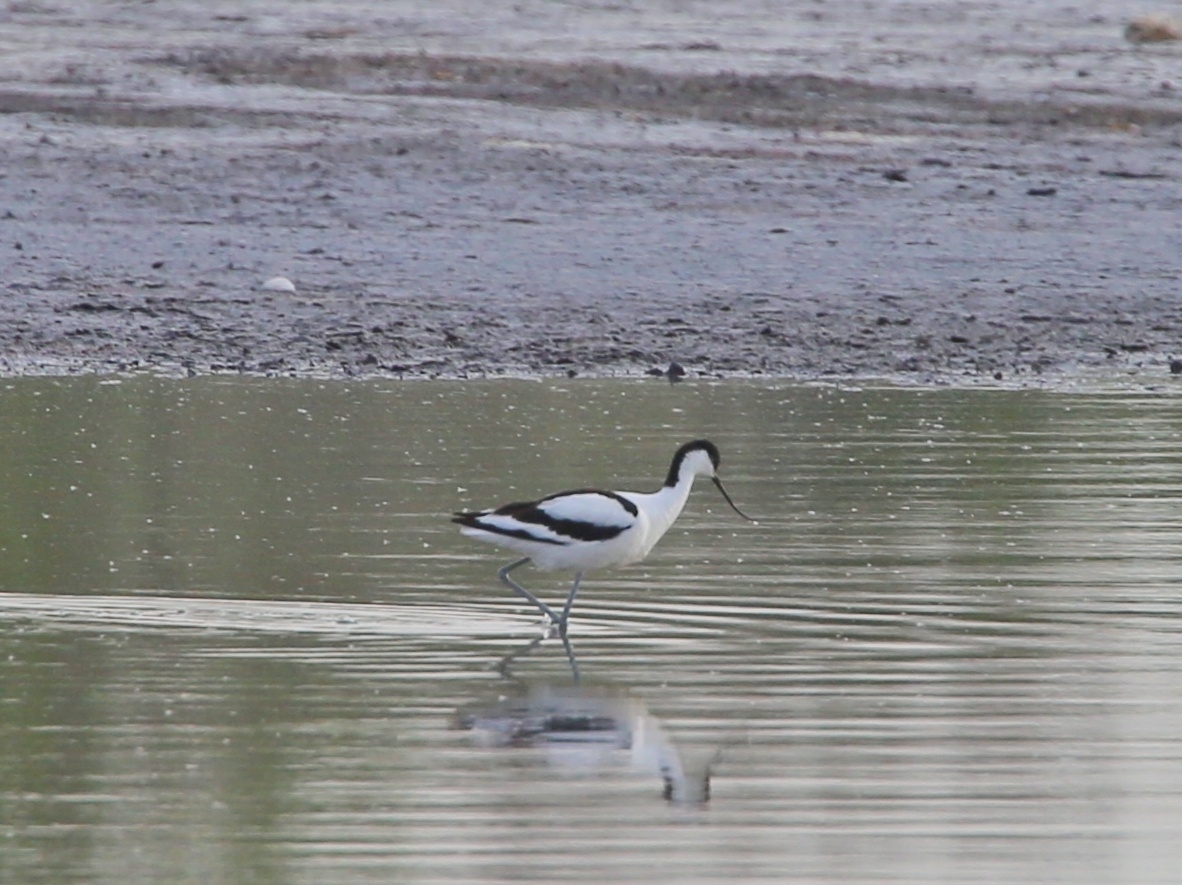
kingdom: Animalia
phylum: Chordata
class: Aves
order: Charadriiformes
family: Recurvirostridae
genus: Recurvirostra
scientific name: Recurvirostra avosetta
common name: Pied avocet
